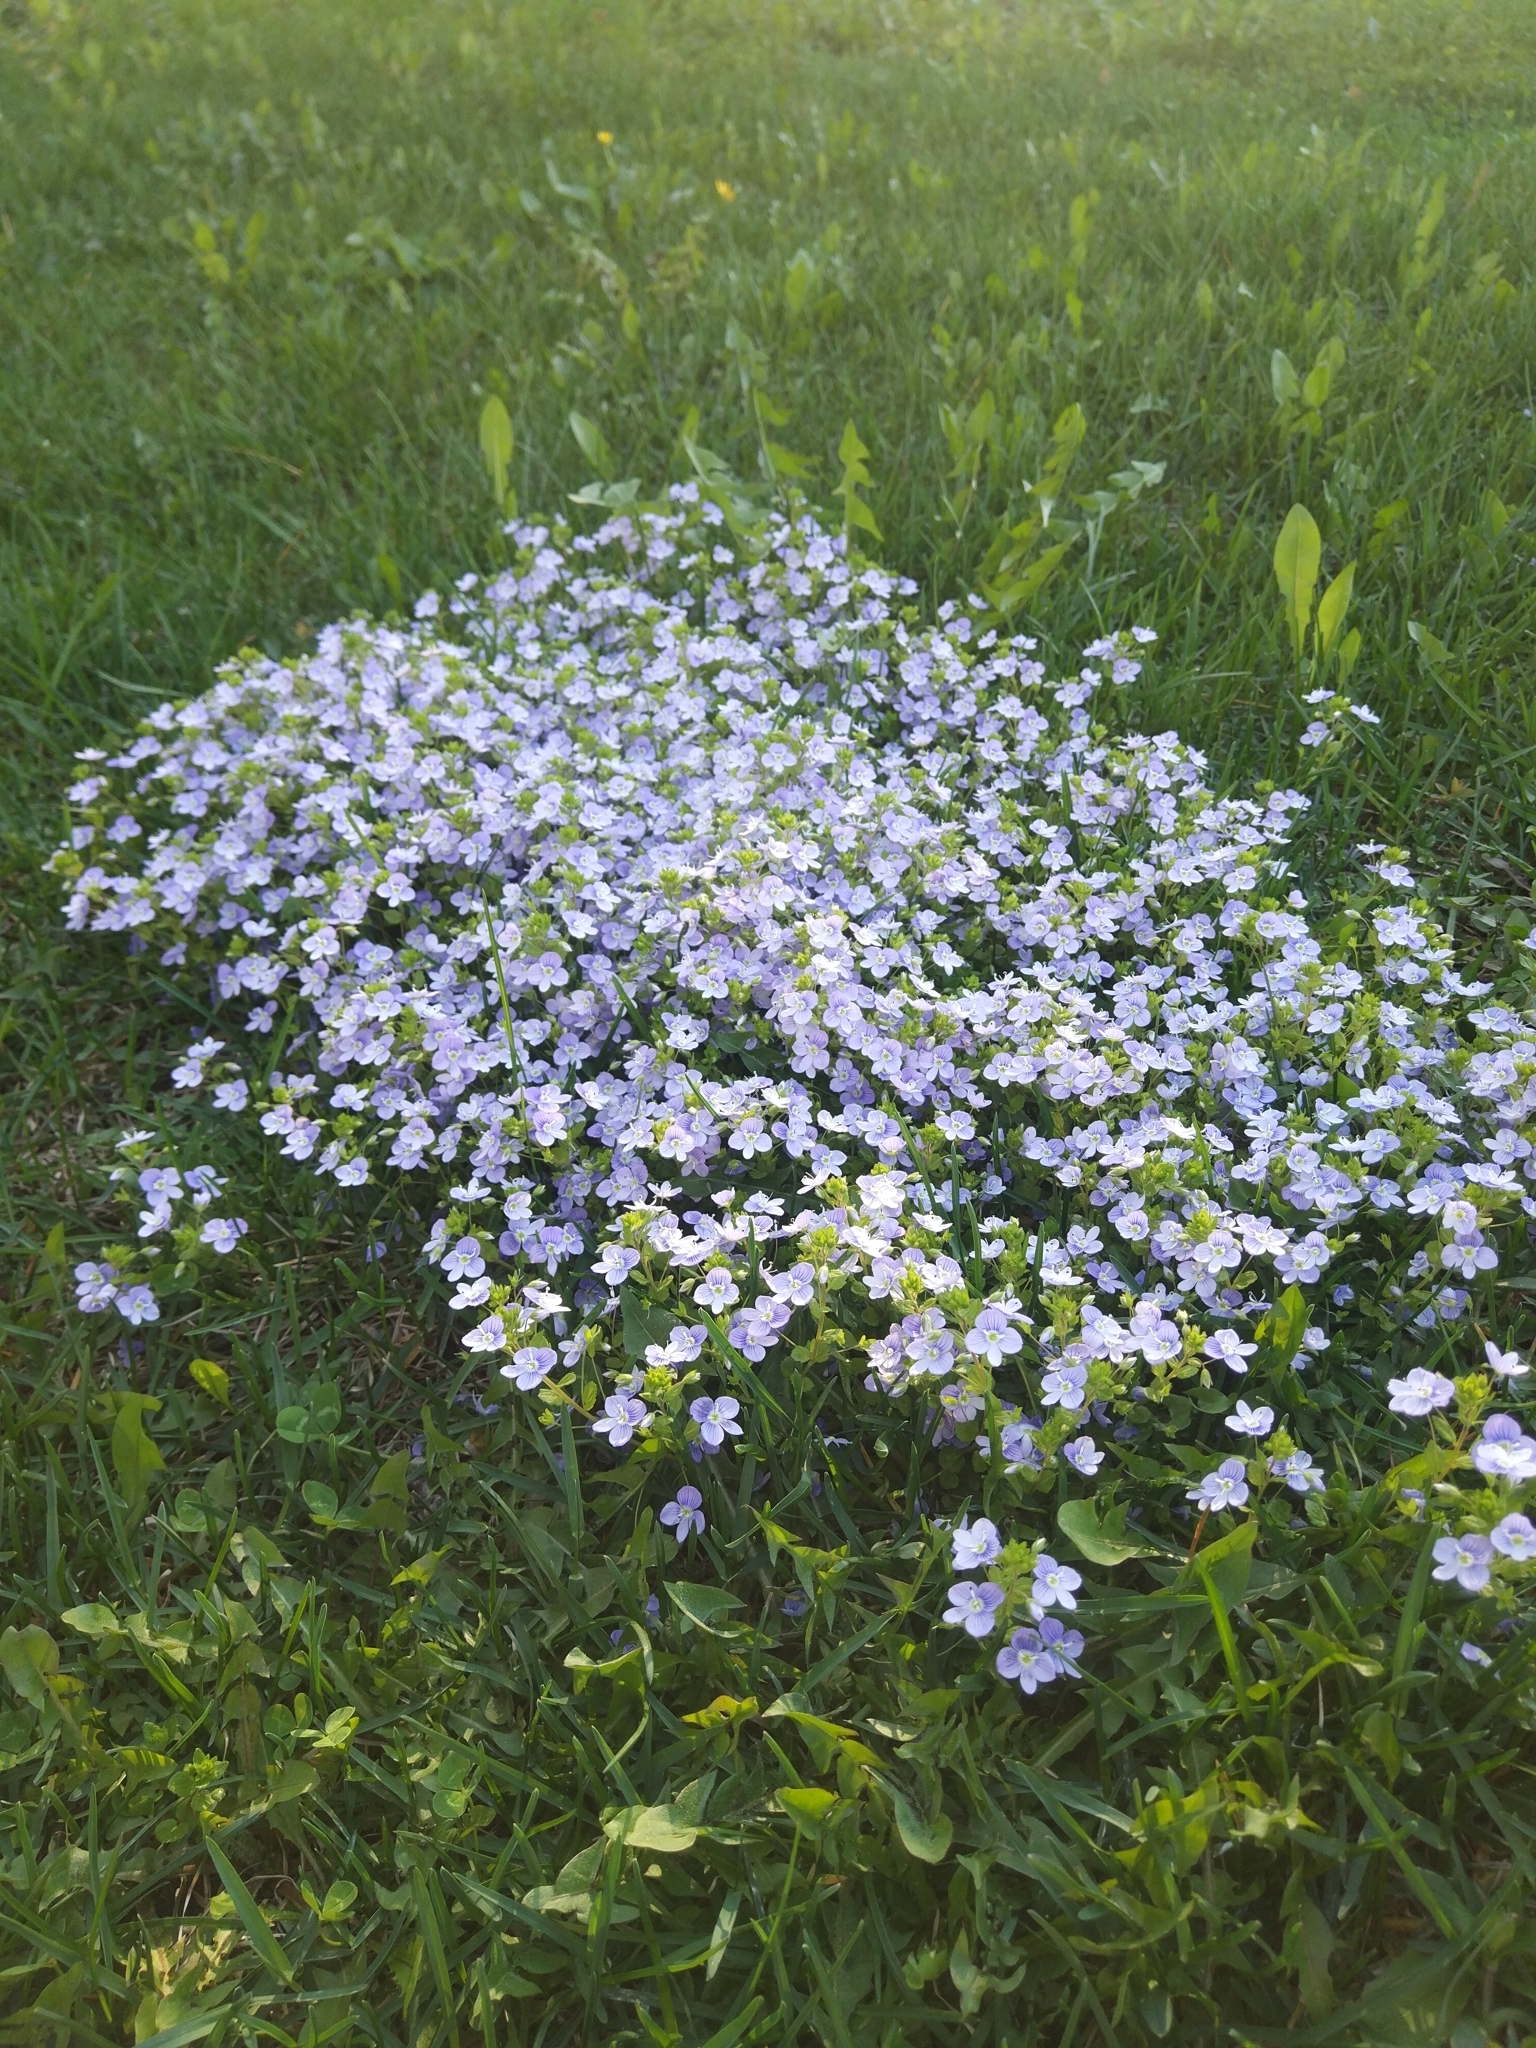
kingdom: Plantae
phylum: Tracheophyta
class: Magnoliopsida
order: Lamiales
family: Plantaginaceae
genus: Veronica
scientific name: Veronica filiformis
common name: Slender speedwell
